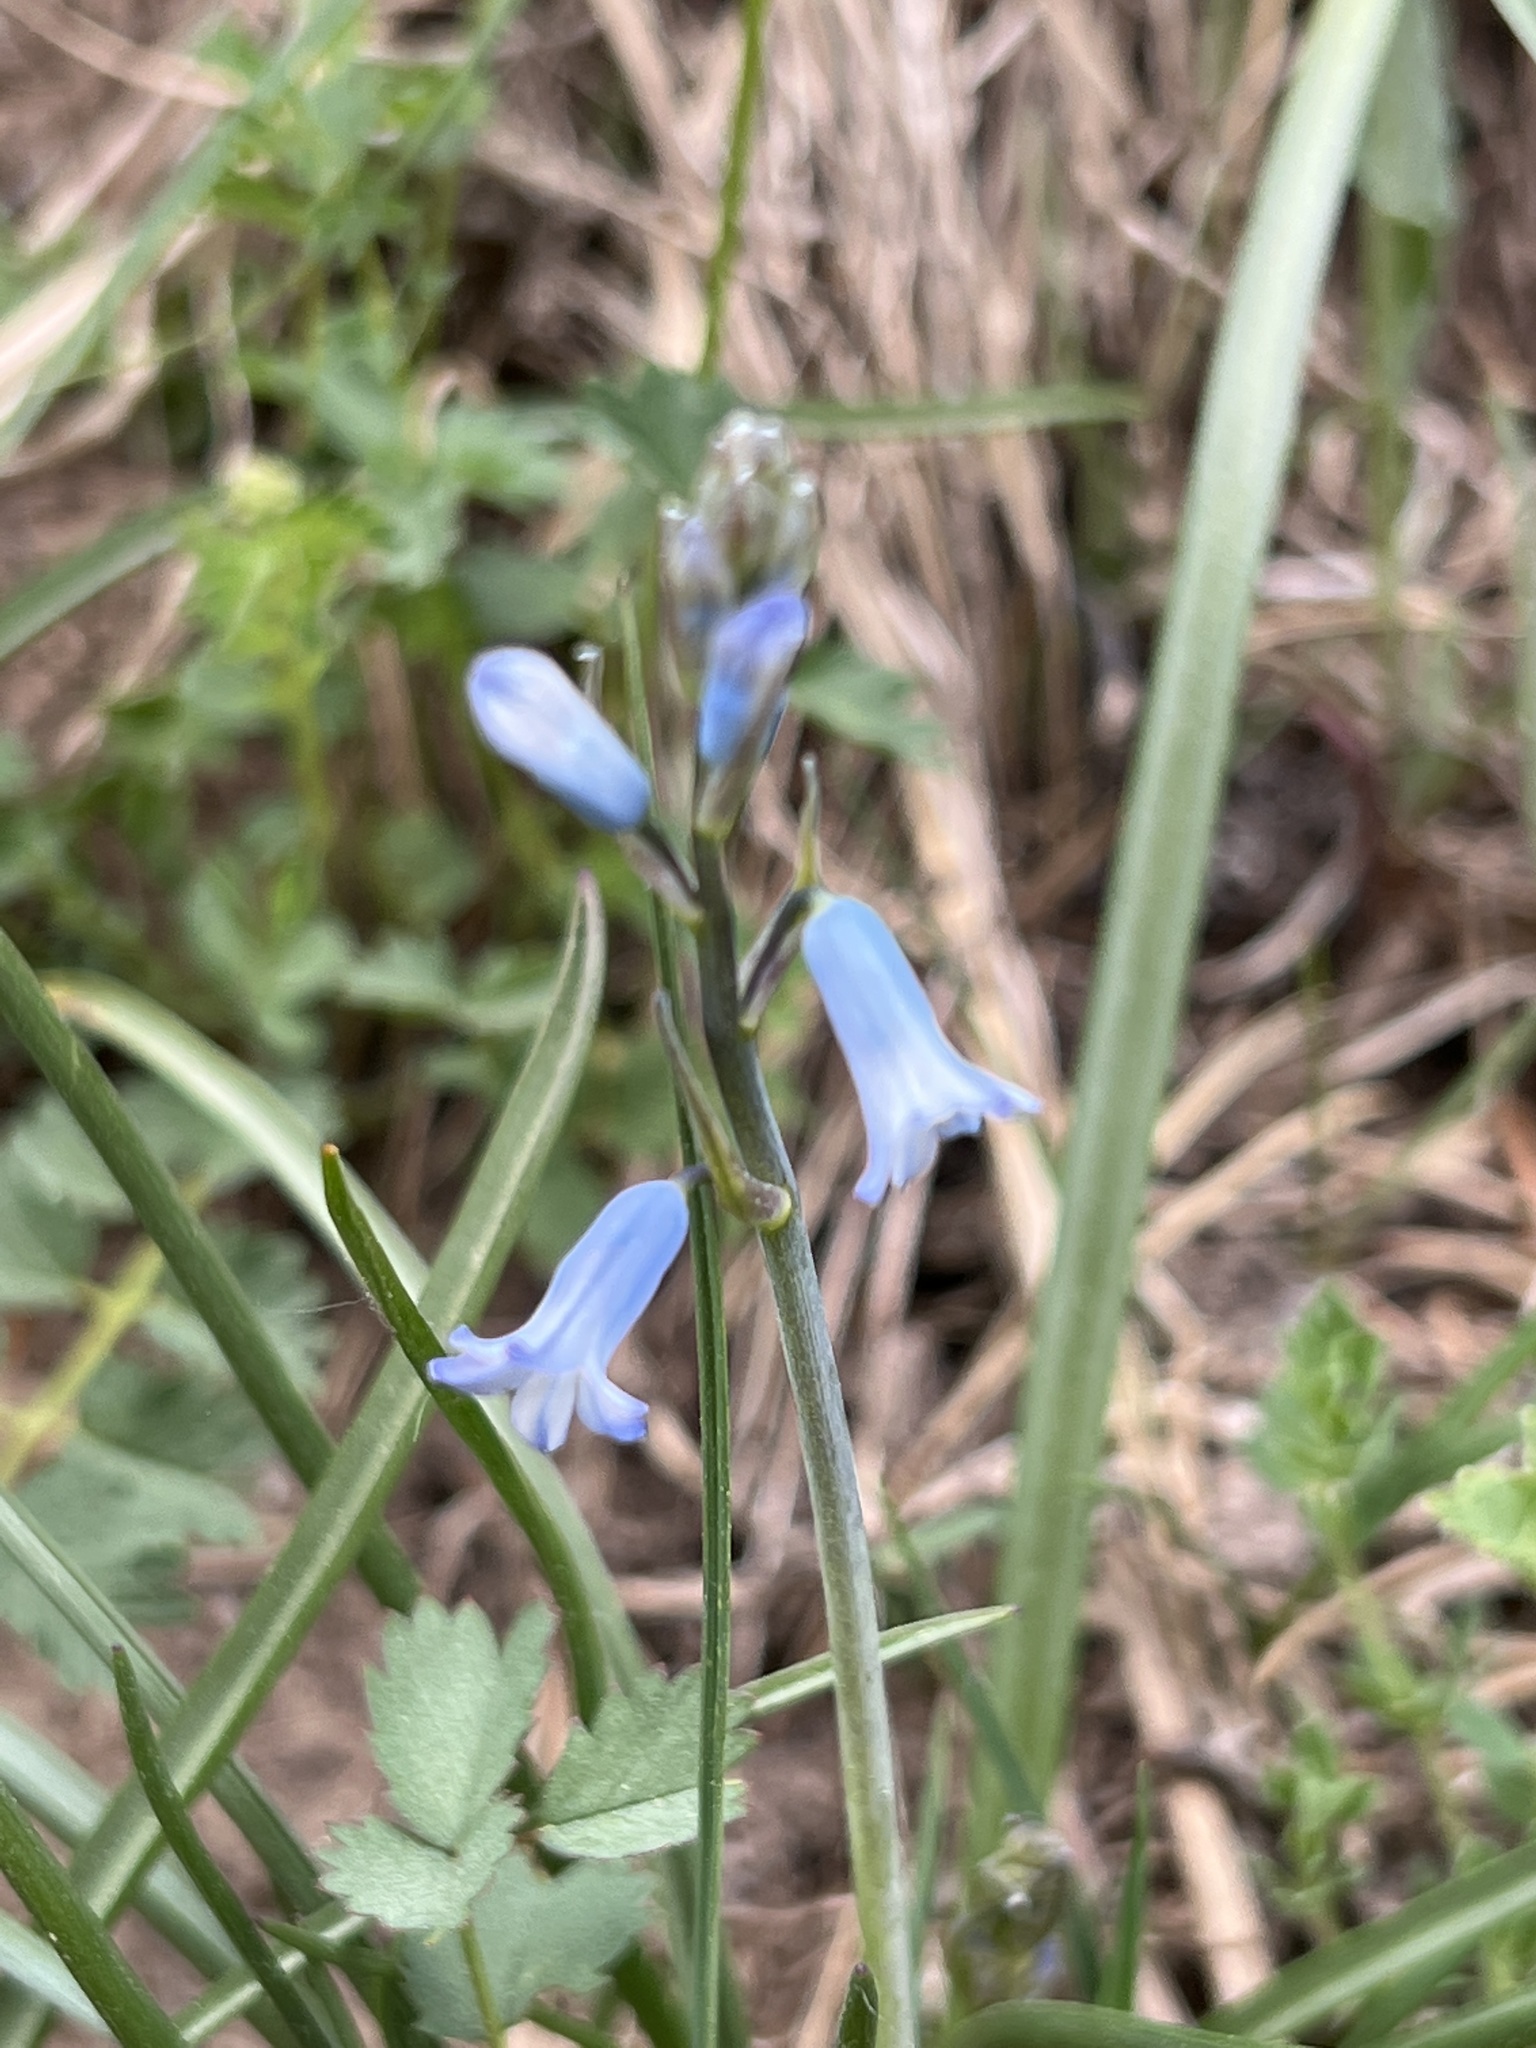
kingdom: Plantae
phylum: Tracheophyta
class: Liliopsida
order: Asparagales
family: Asparagaceae
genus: Brimeura
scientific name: Brimeura amethystina
